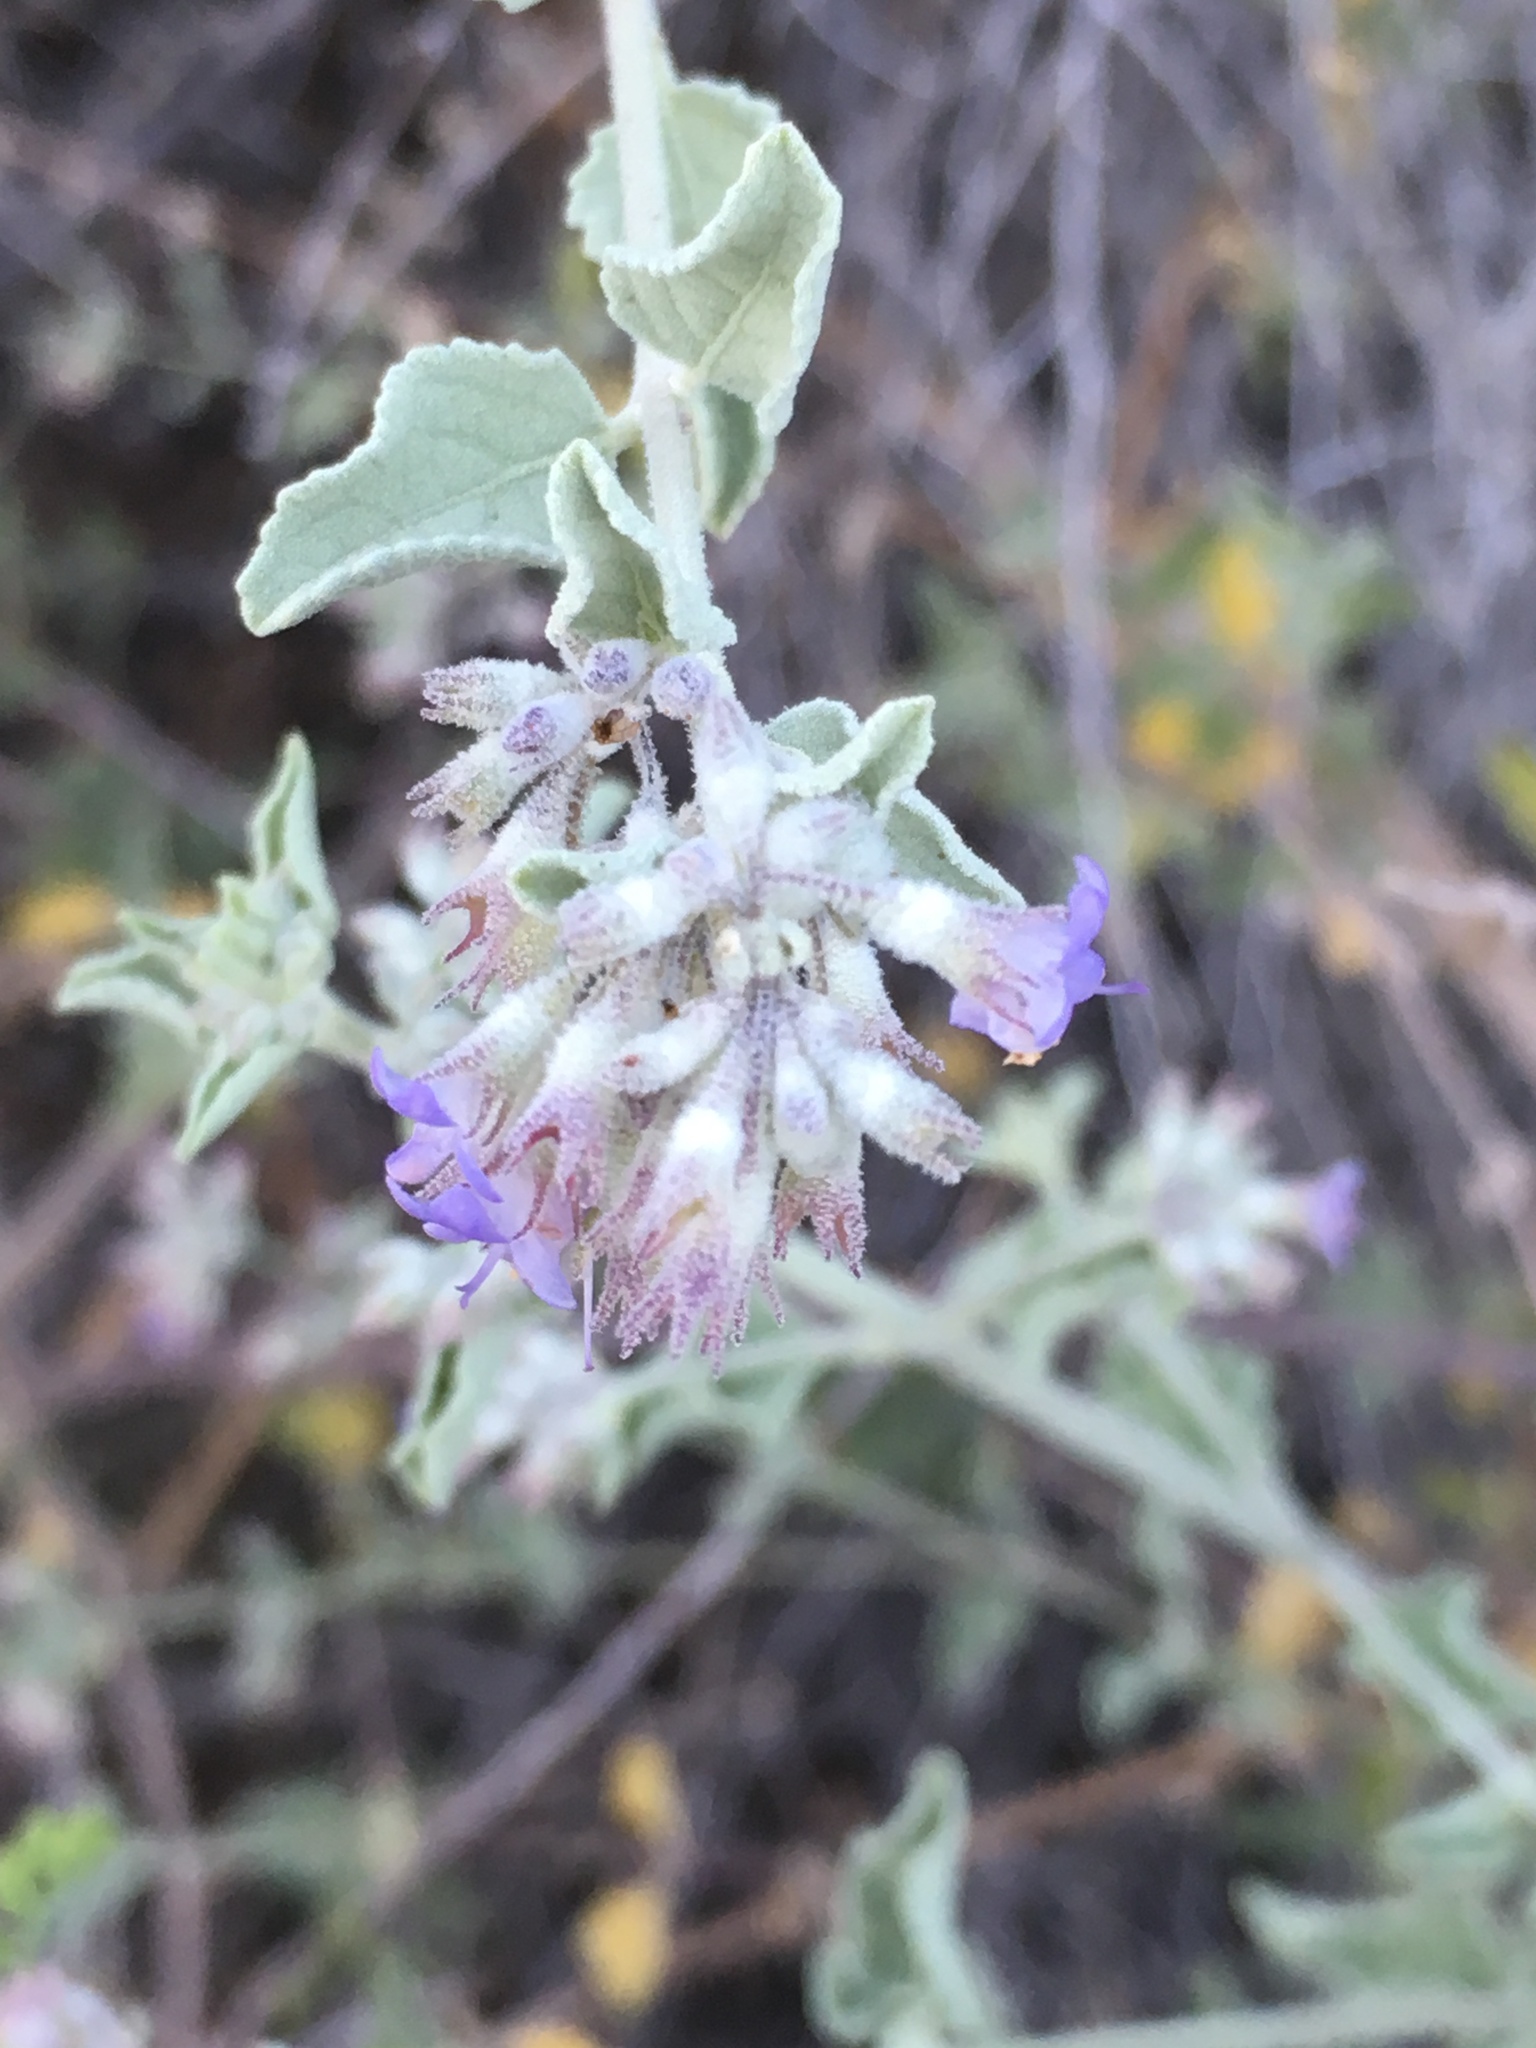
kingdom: Plantae
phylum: Tracheophyta
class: Magnoliopsida
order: Lamiales
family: Lamiaceae
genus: Condea
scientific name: Condea emoryi
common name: Chia
